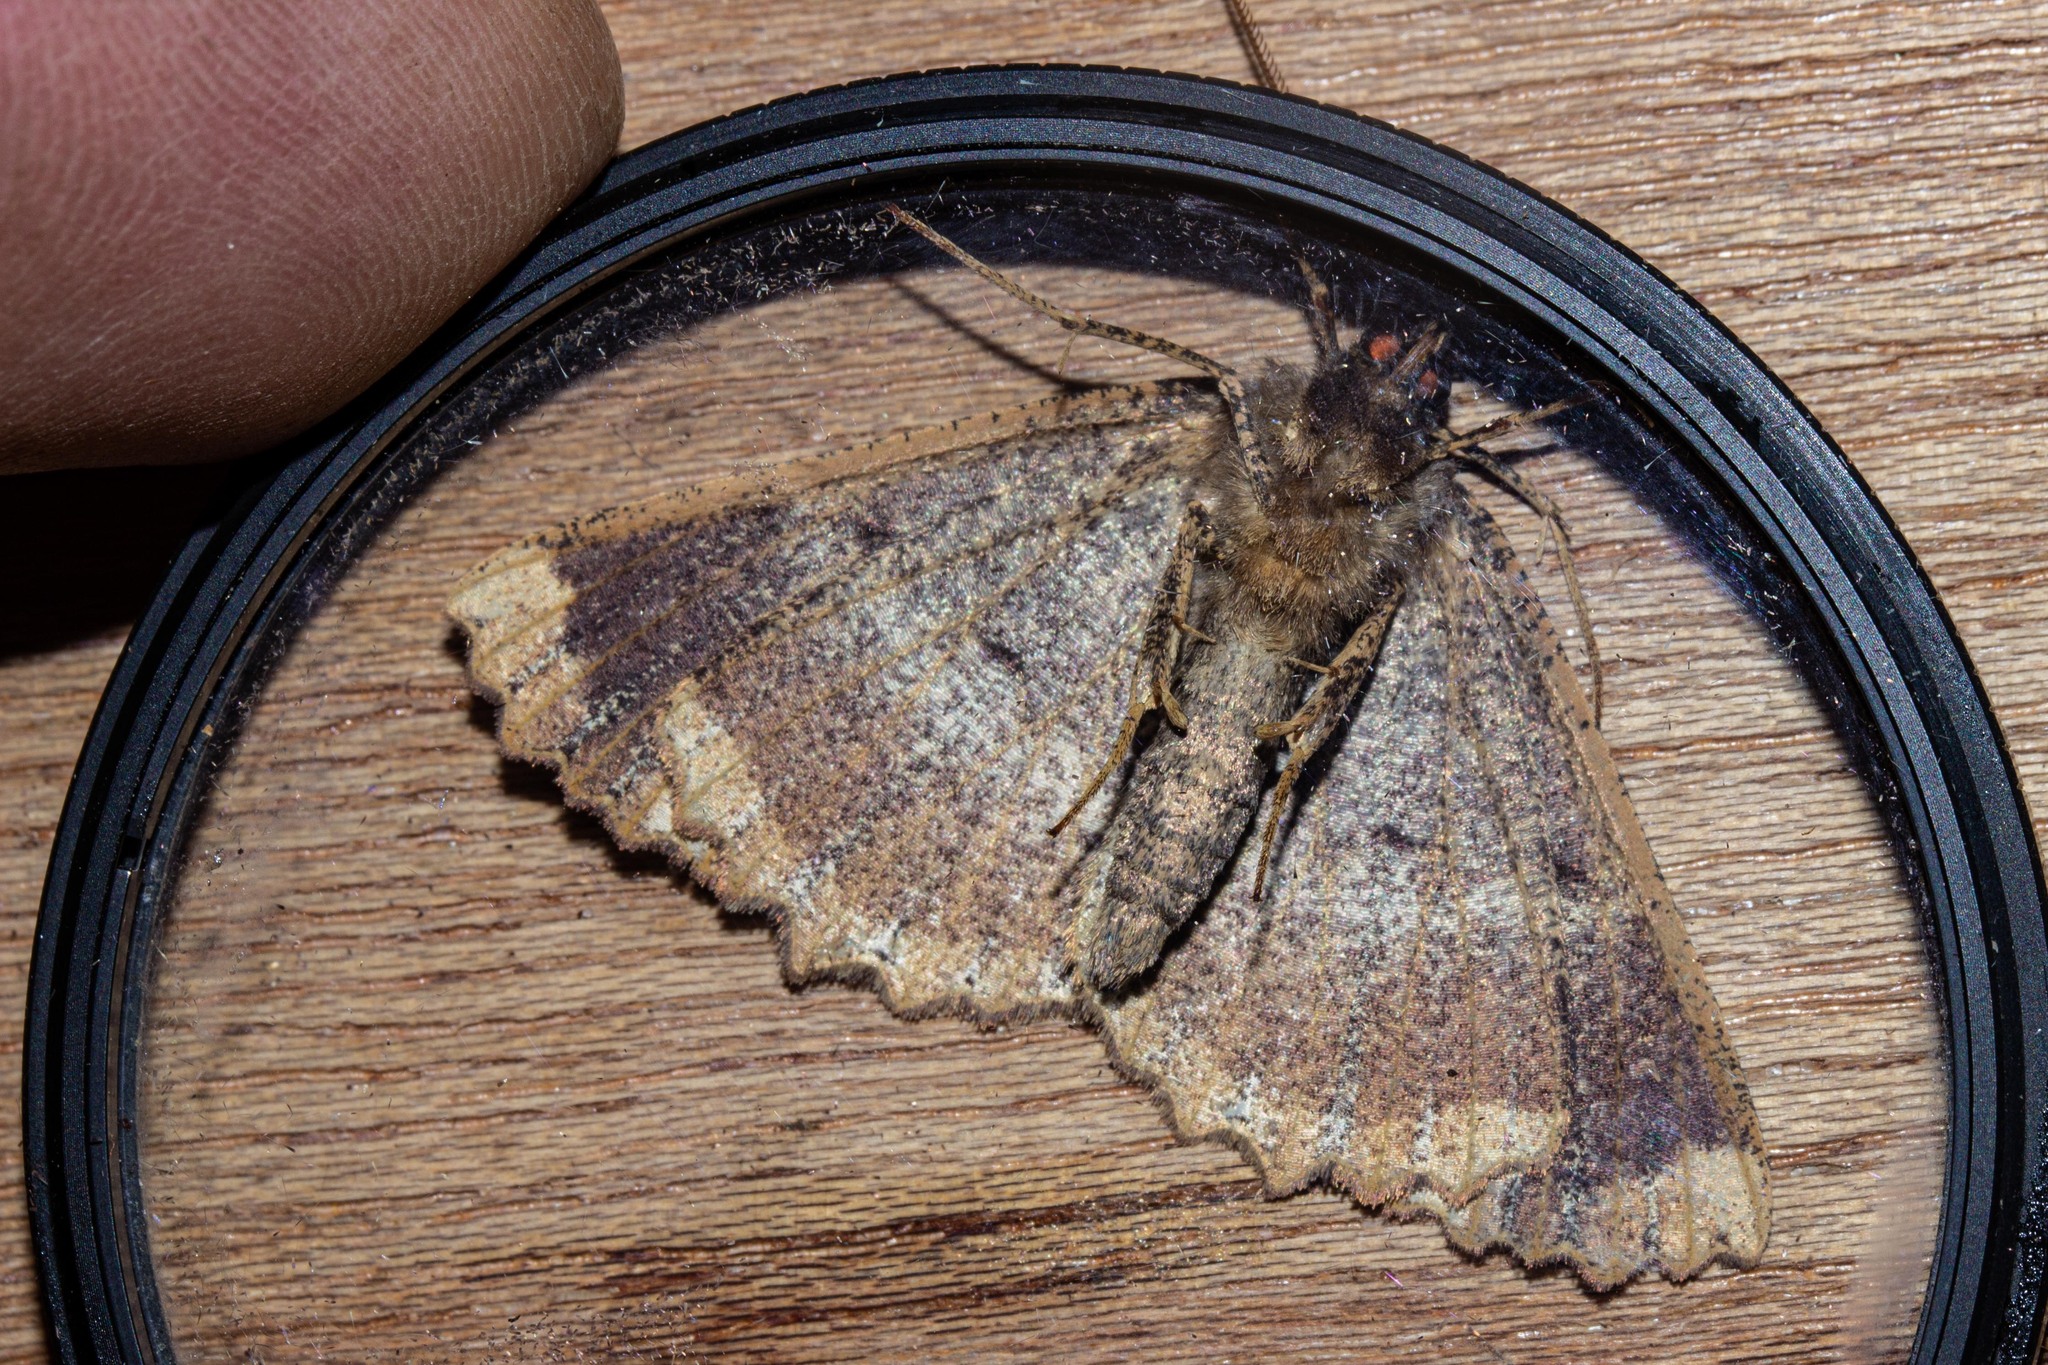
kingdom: Animalia
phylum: Arthropoda
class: Insecta
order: Lepidoptera
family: Geometridae
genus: Gellonia
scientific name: Gellonia dejectaria
